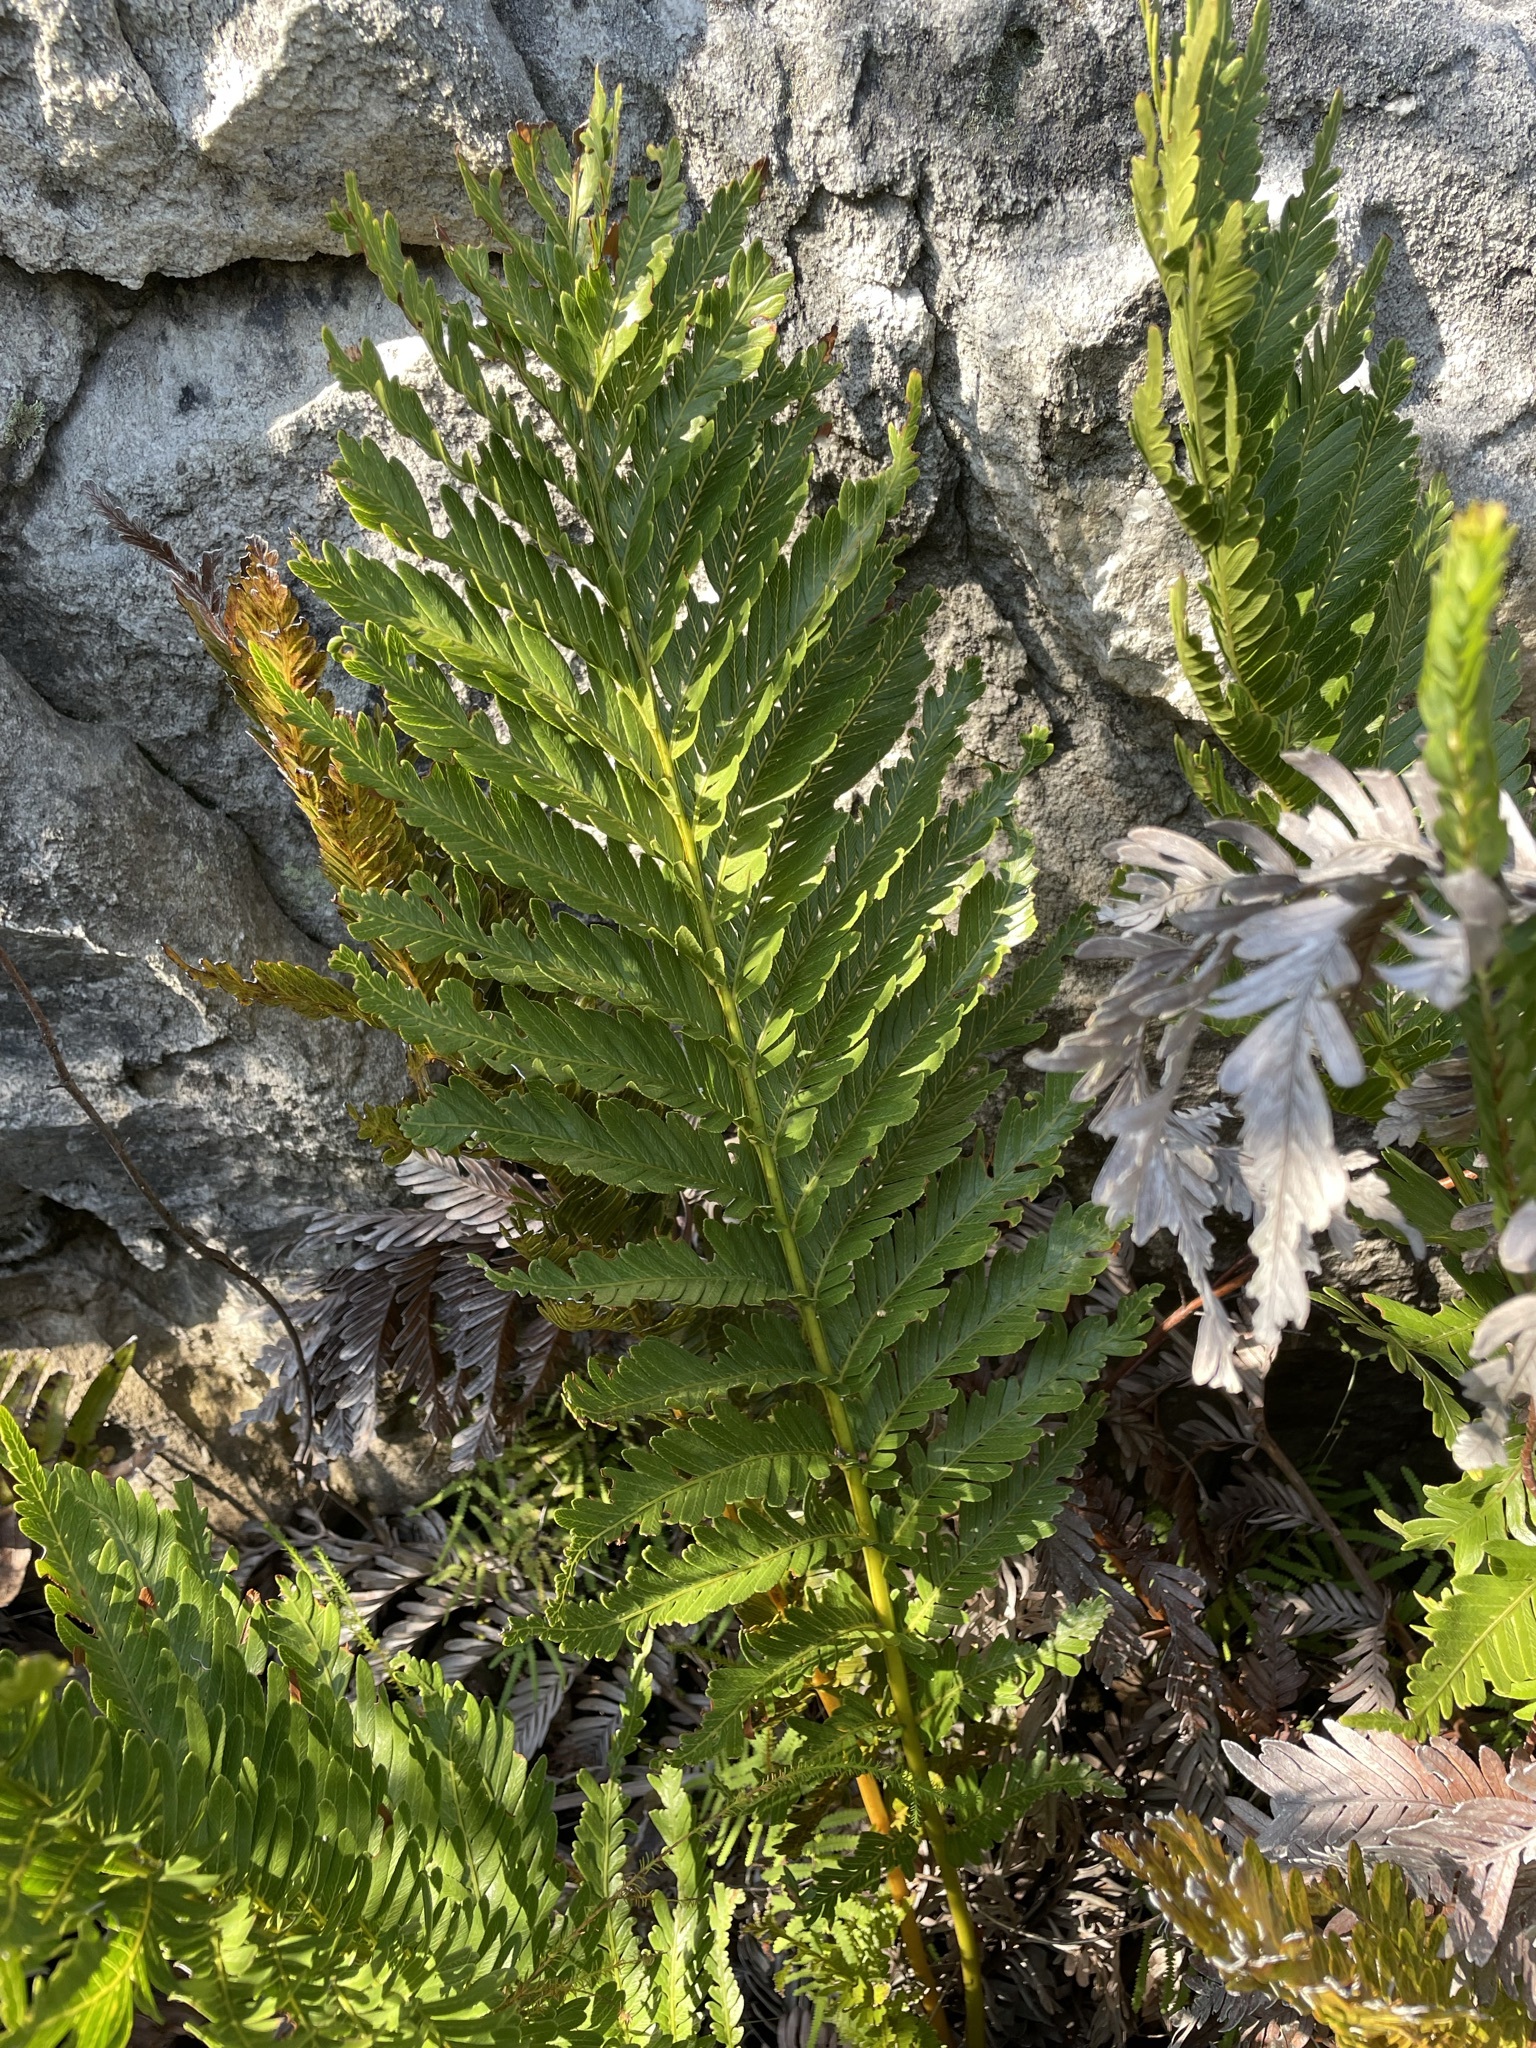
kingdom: Plantae
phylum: Tracheophyta
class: Polypodiopsida
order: Osmundales
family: Osmundaceae
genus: Todea
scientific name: Todea barbara
